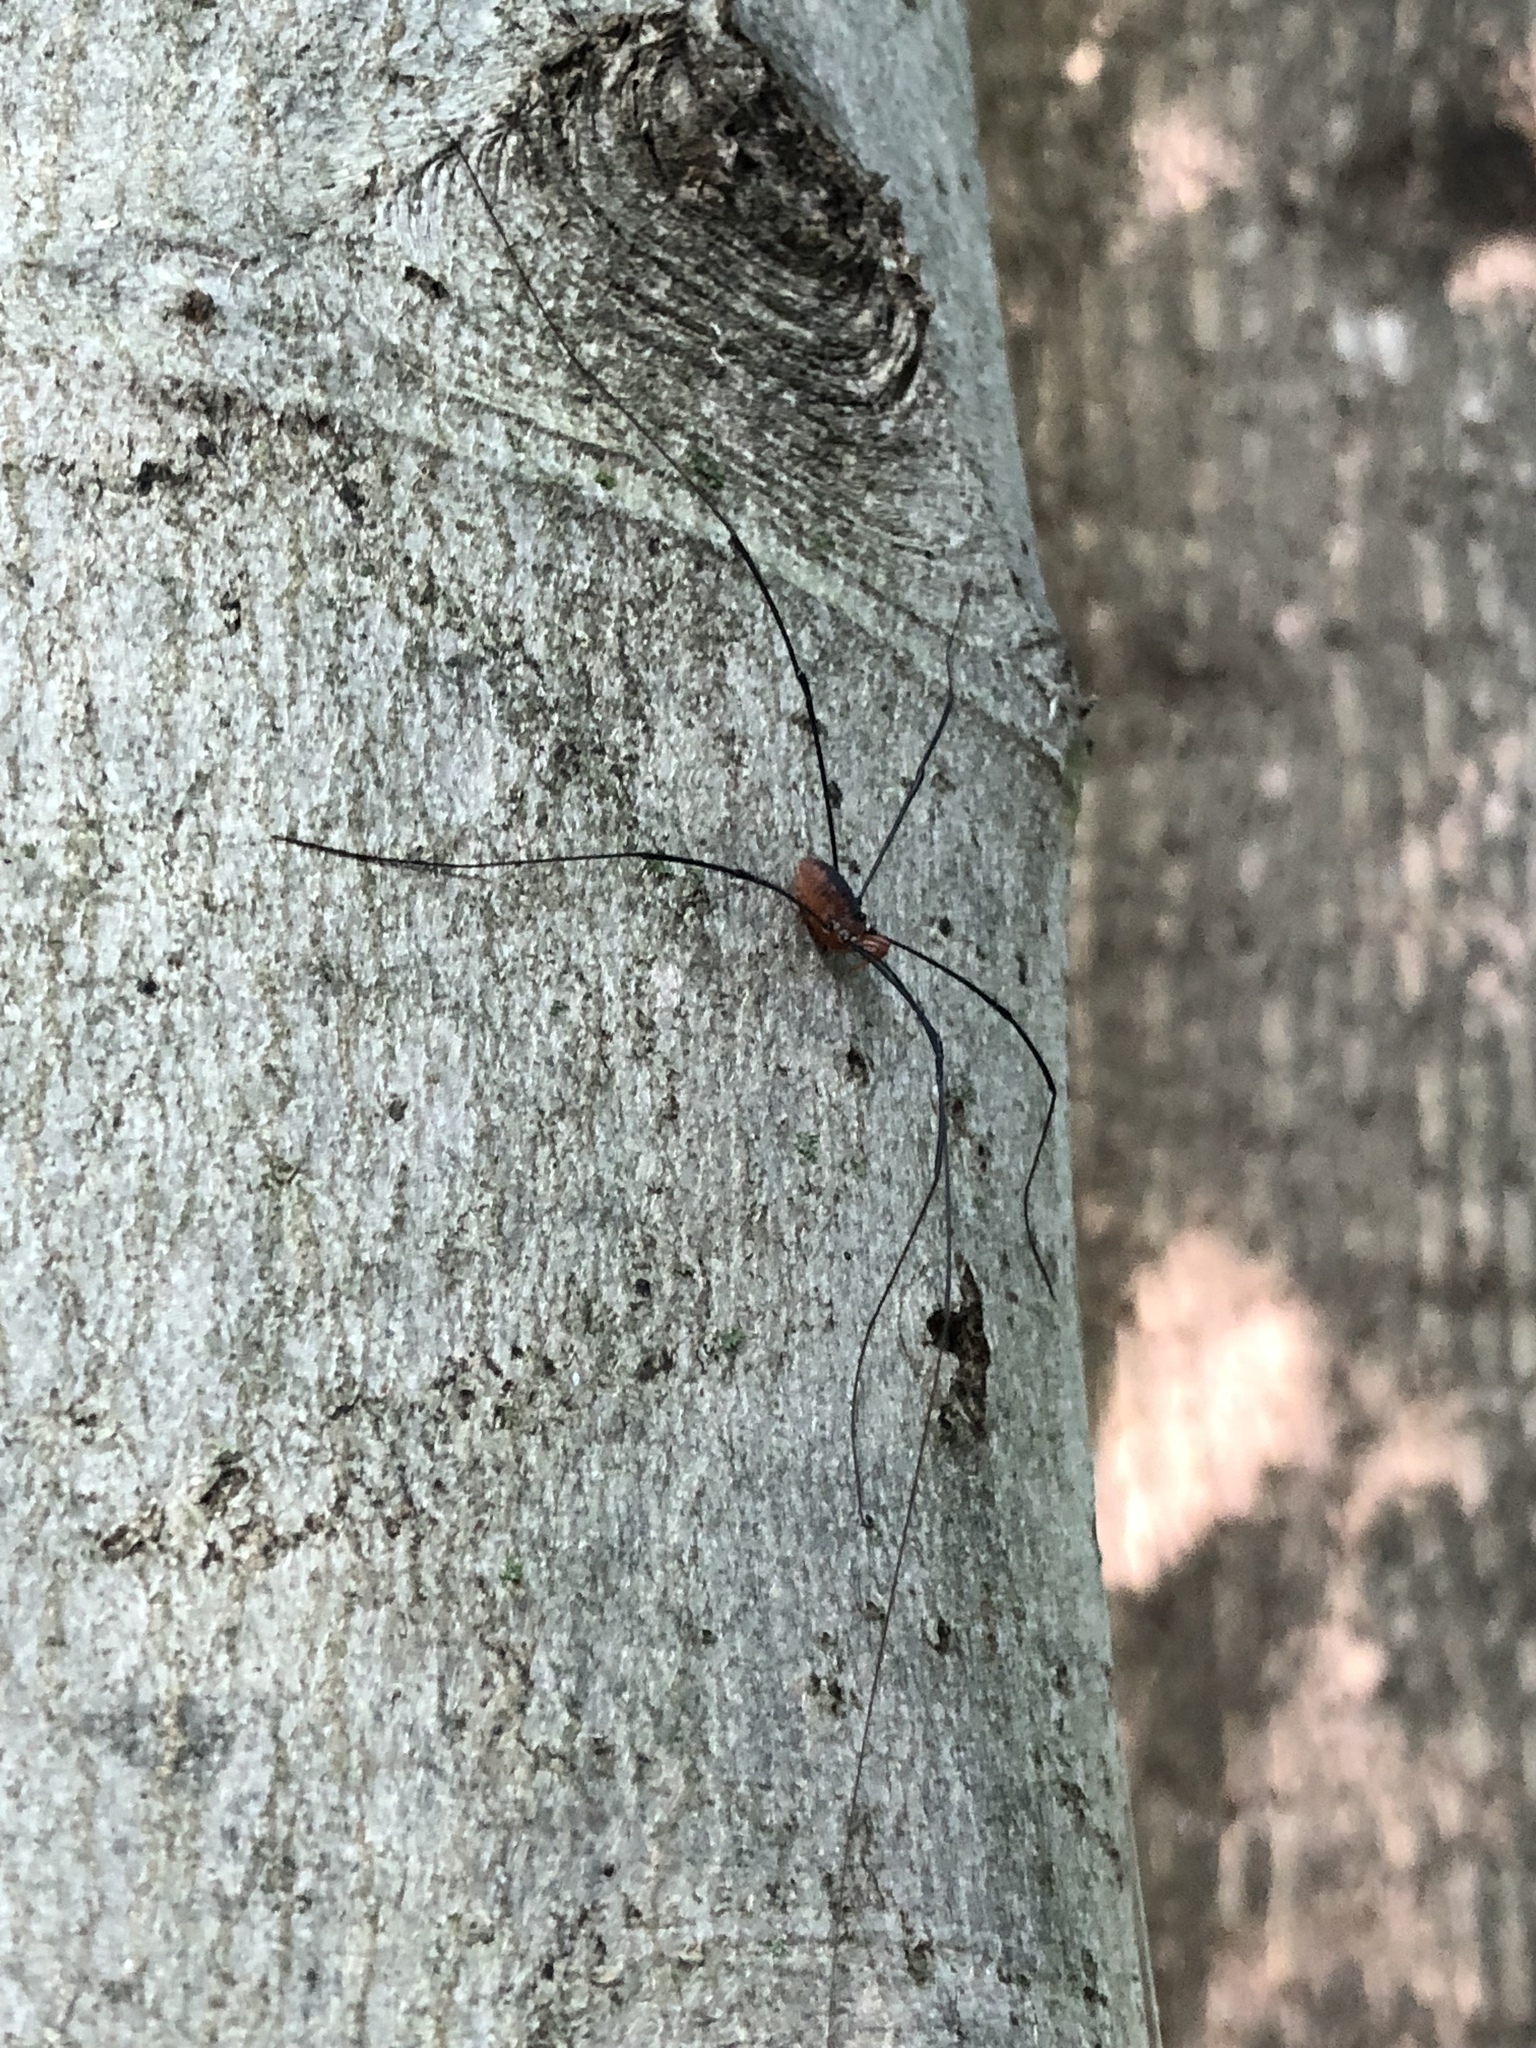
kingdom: Animalia
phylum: Arthropoda
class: Arachnida
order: Opiliones
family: Sclerosomatidae
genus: Leiobunum
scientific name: Leiobunum vittatum
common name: Eastern harvestman
